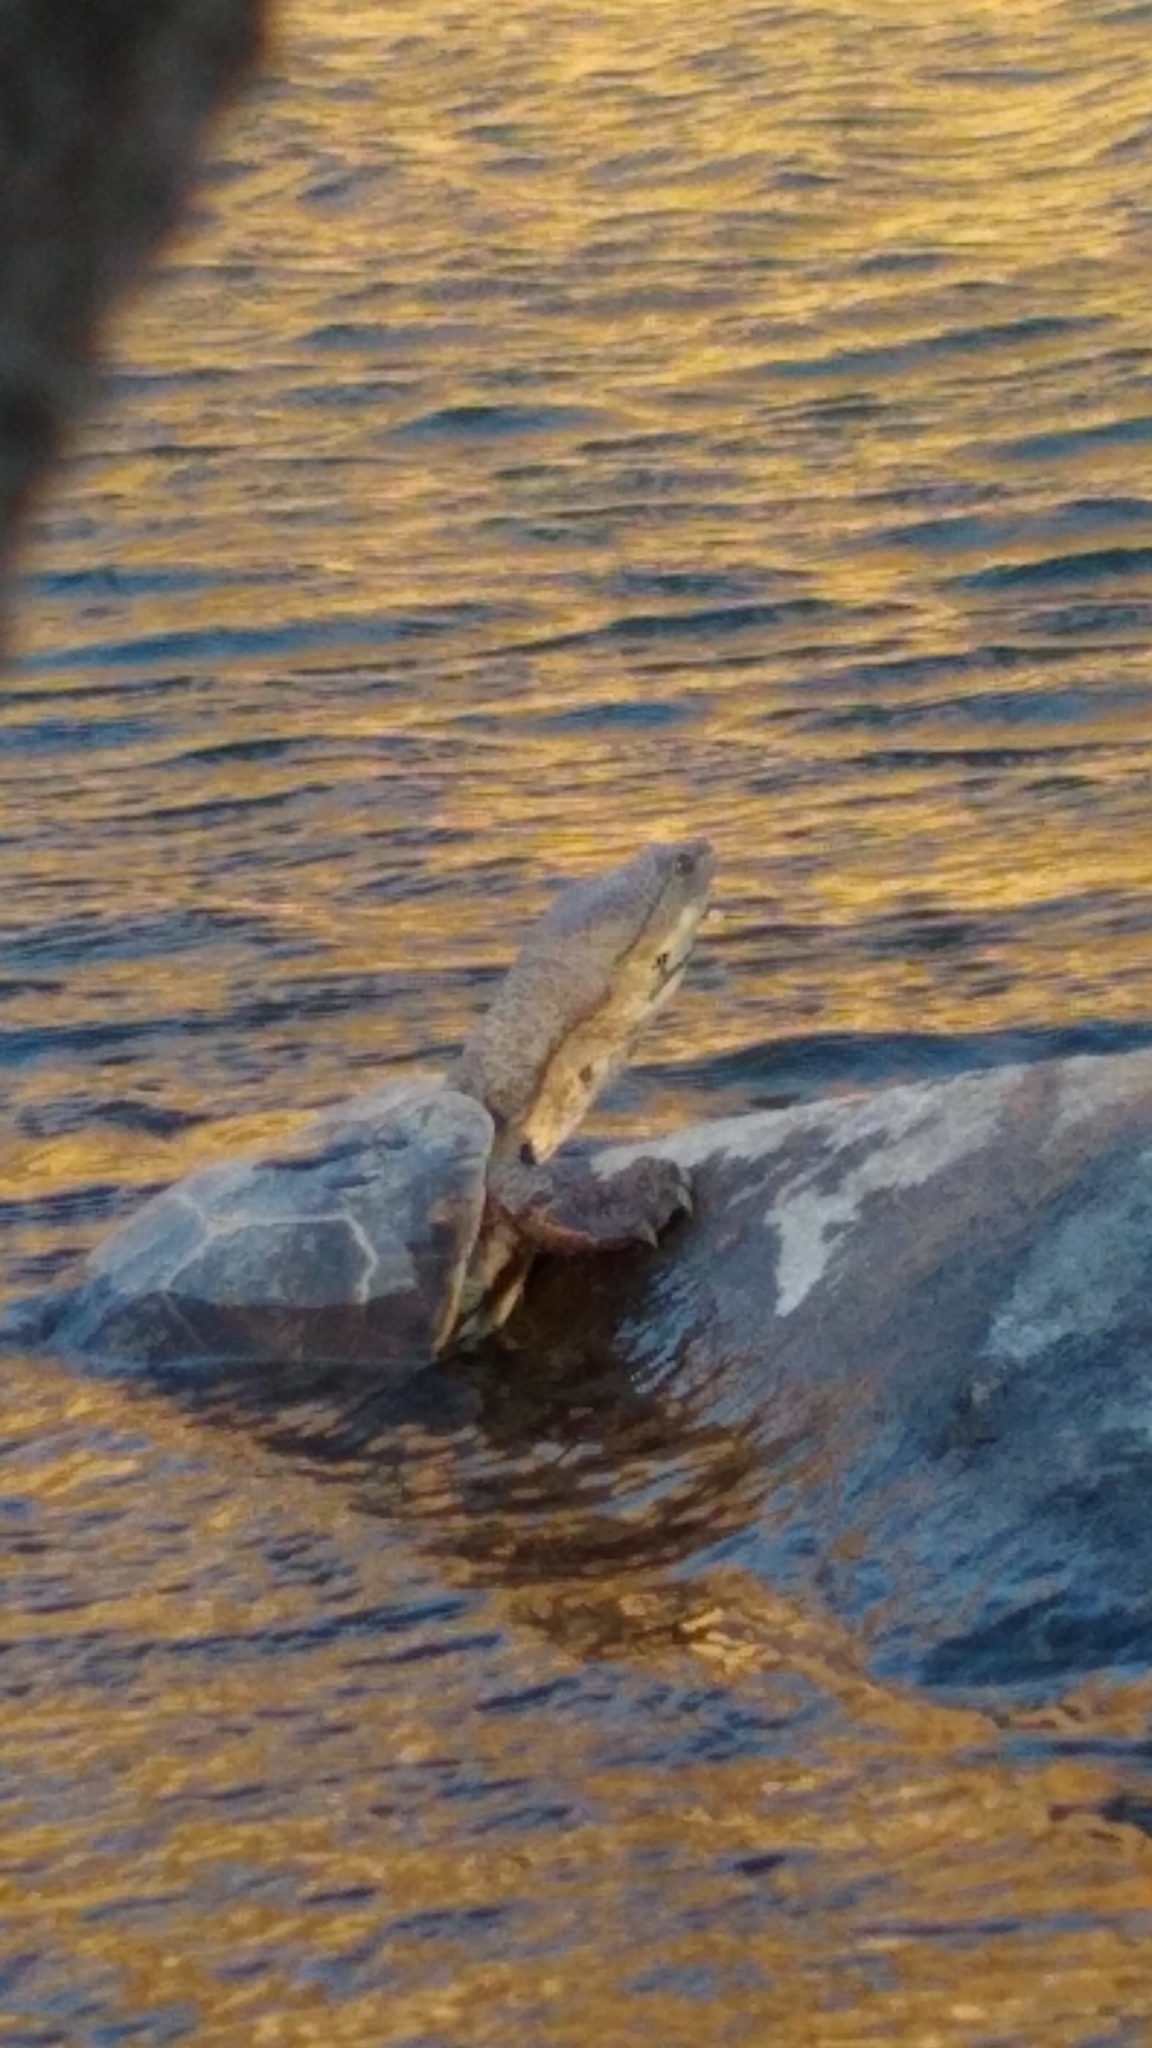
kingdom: Animalia
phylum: Chordata
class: Testudines
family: Chelidae
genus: Phrynops
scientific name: Phrynops hilarii
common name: Side-necked turtle of saint hillaire
